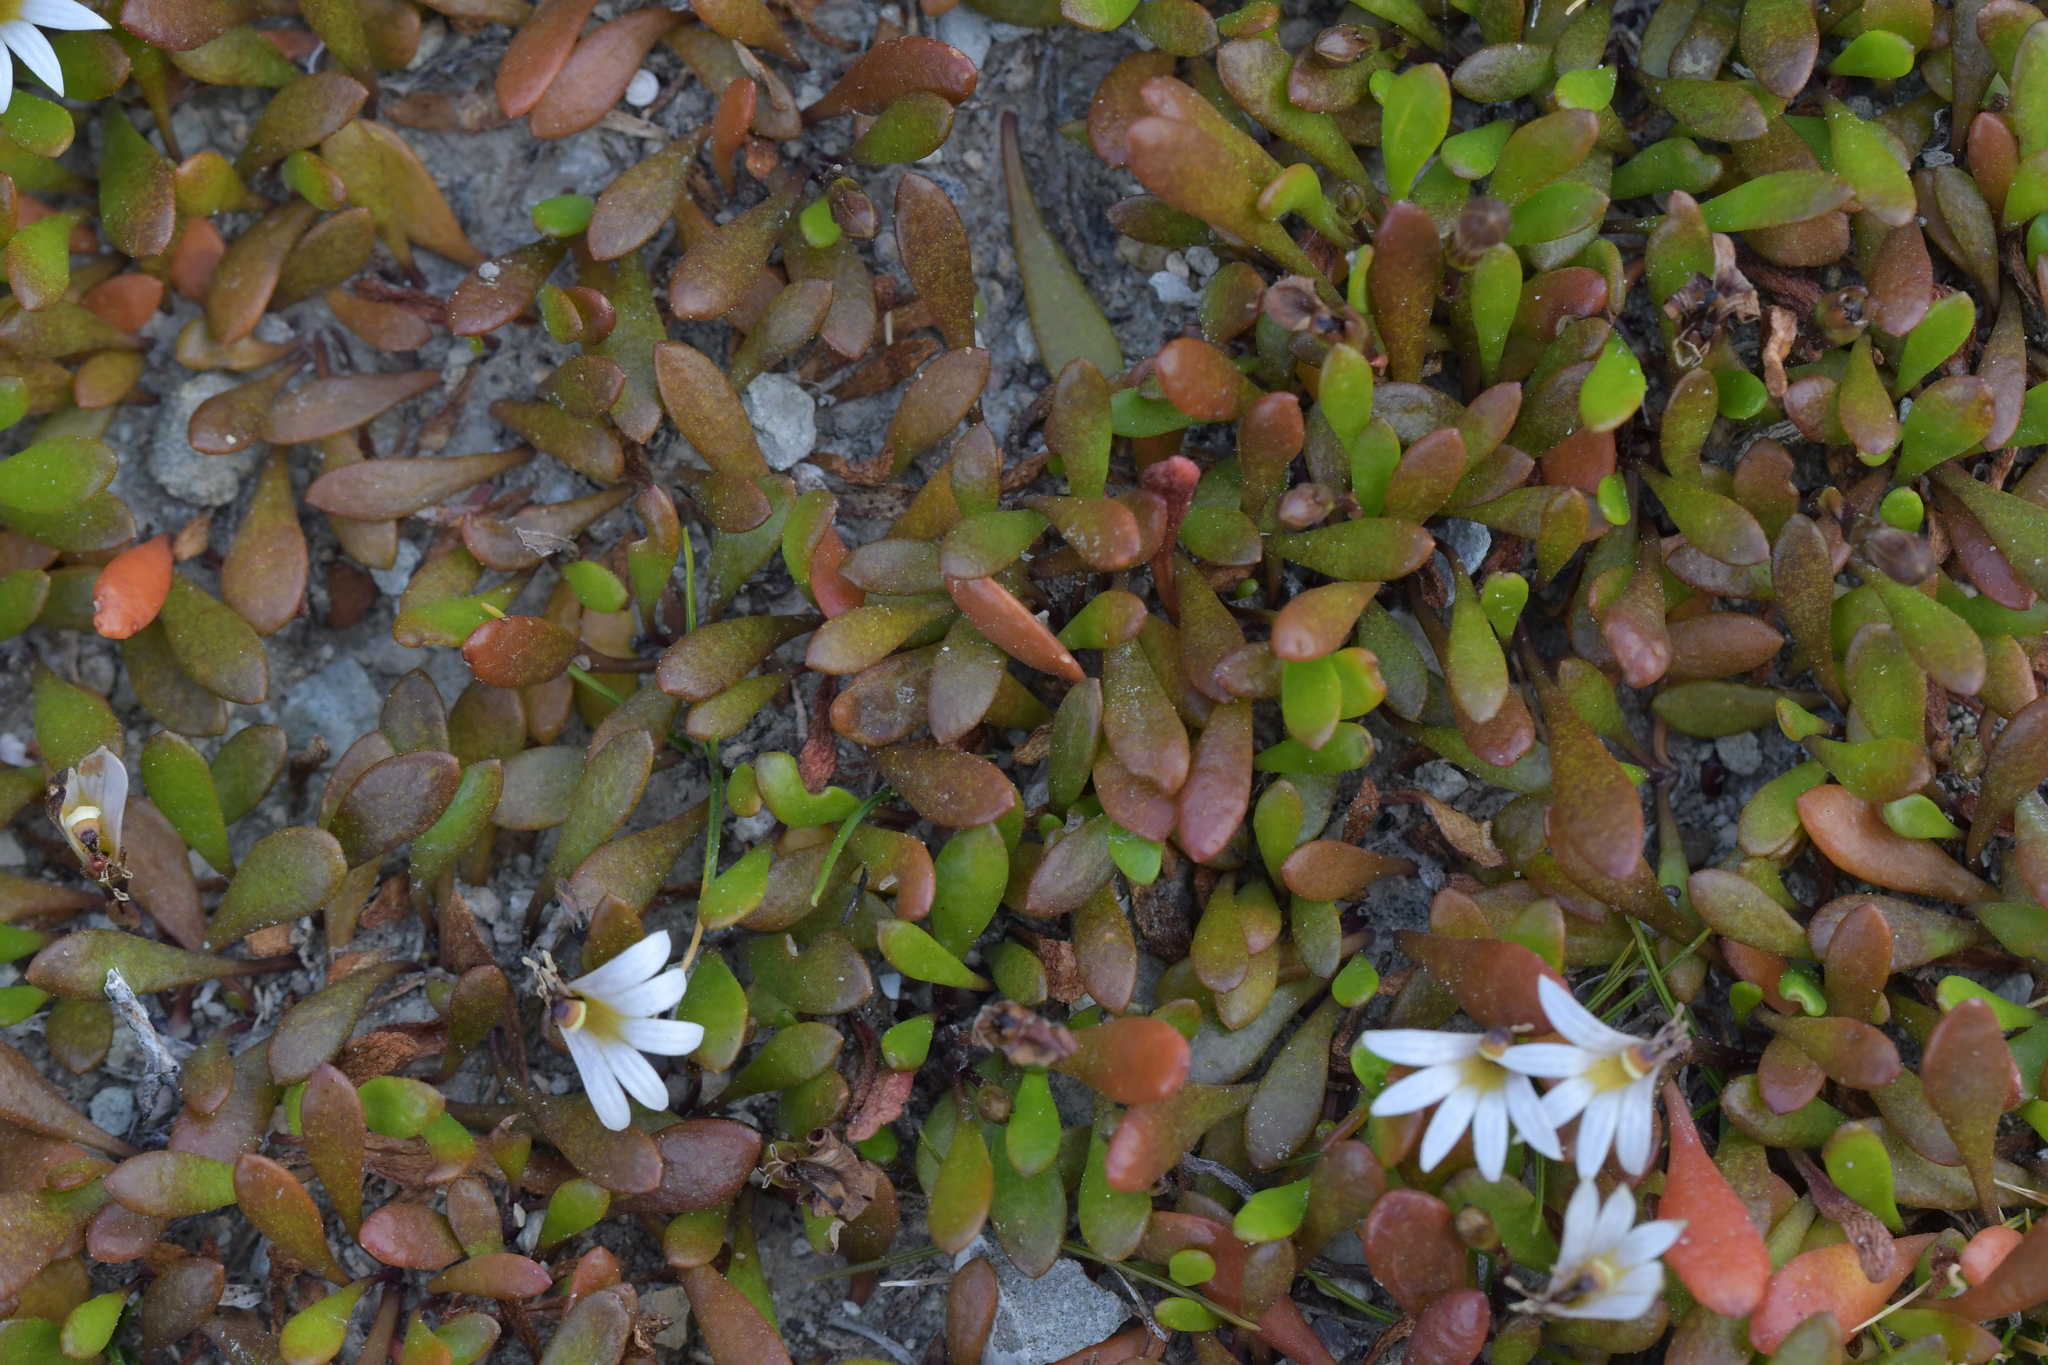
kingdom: Plantae
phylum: Tracheophyta
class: Magnoliopsida
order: Asterales
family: Goodeniaceae
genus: Goodenia
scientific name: Goodenia radicans
